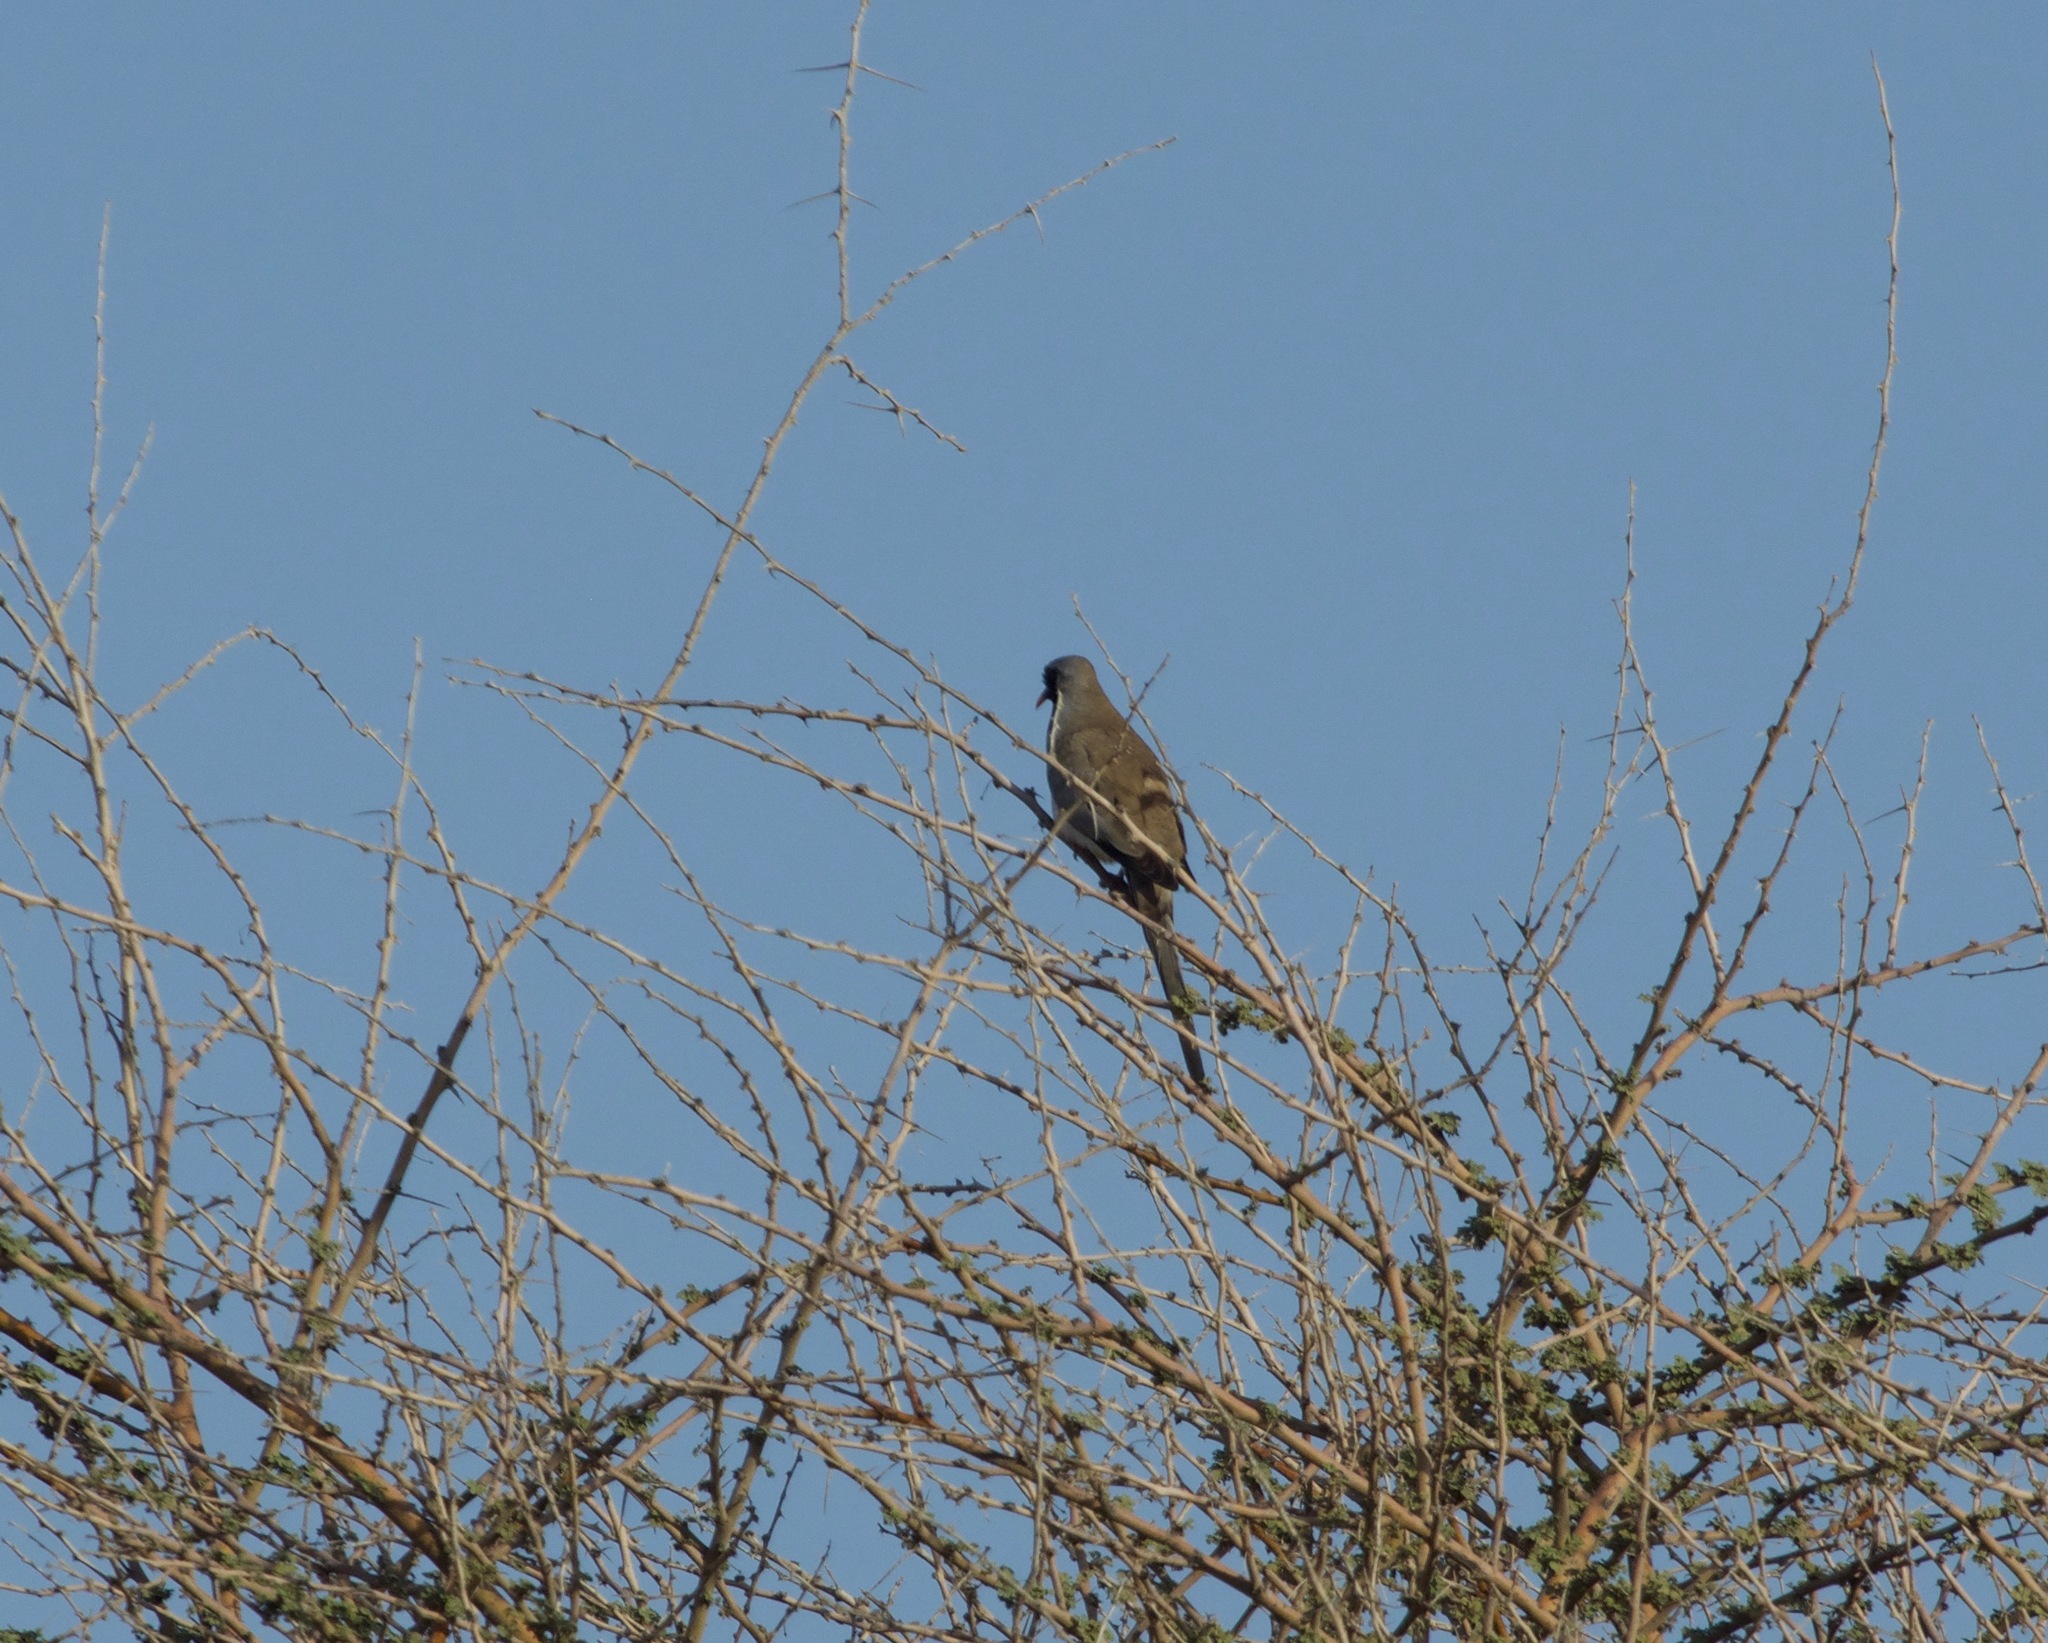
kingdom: Animalia
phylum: Chordata
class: Aves
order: Columbiformes
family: Columbidae
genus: Oena
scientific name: Oena capensis
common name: Namaqua dove
